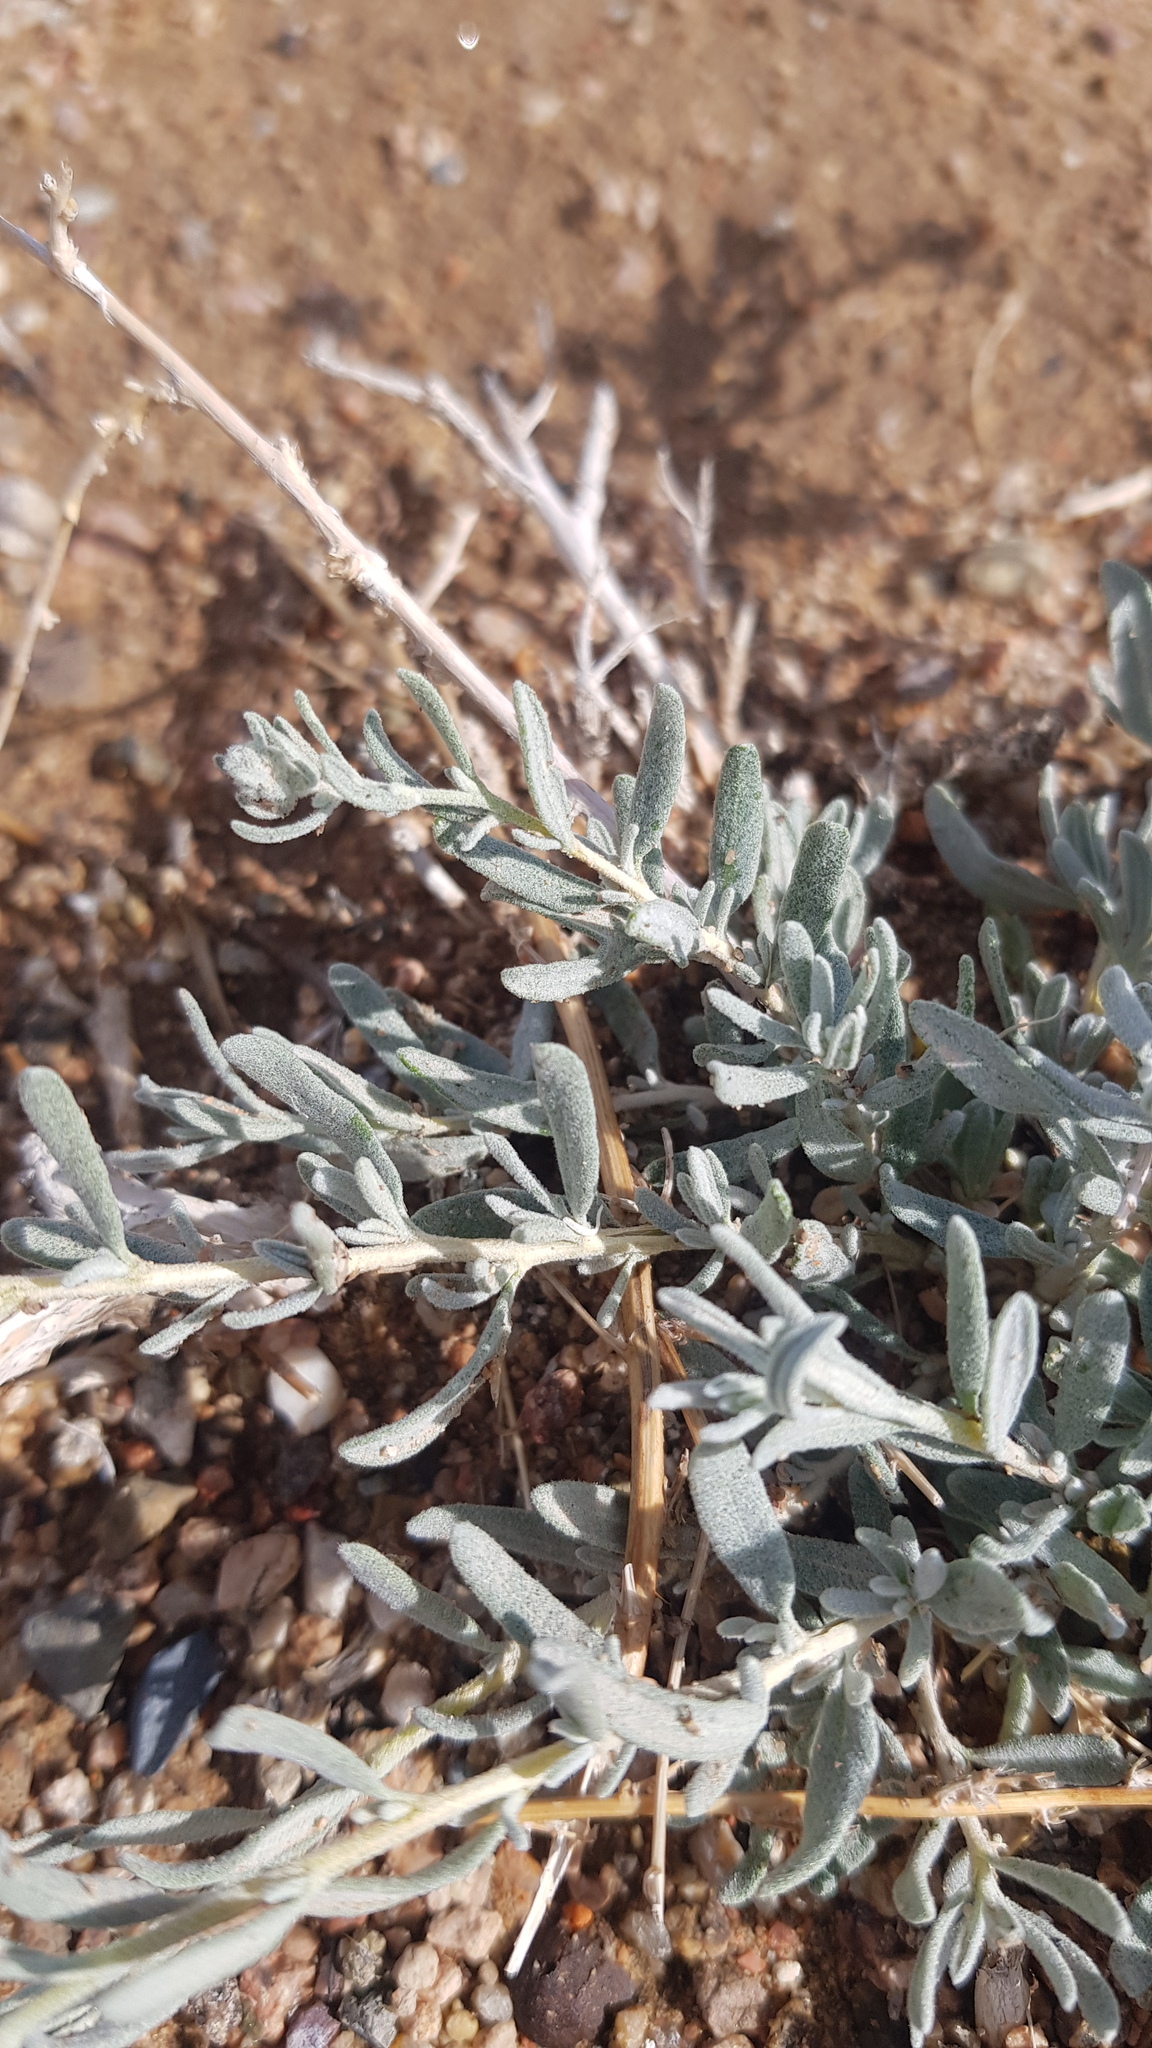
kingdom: Plantae
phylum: Tracheophyta
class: Magnoliopsida
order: Caryophyllales
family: Amaranthaceae
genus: Krascheninnikovia
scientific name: Krascheninnikovia ceratoides
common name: Pamirian winterfat
